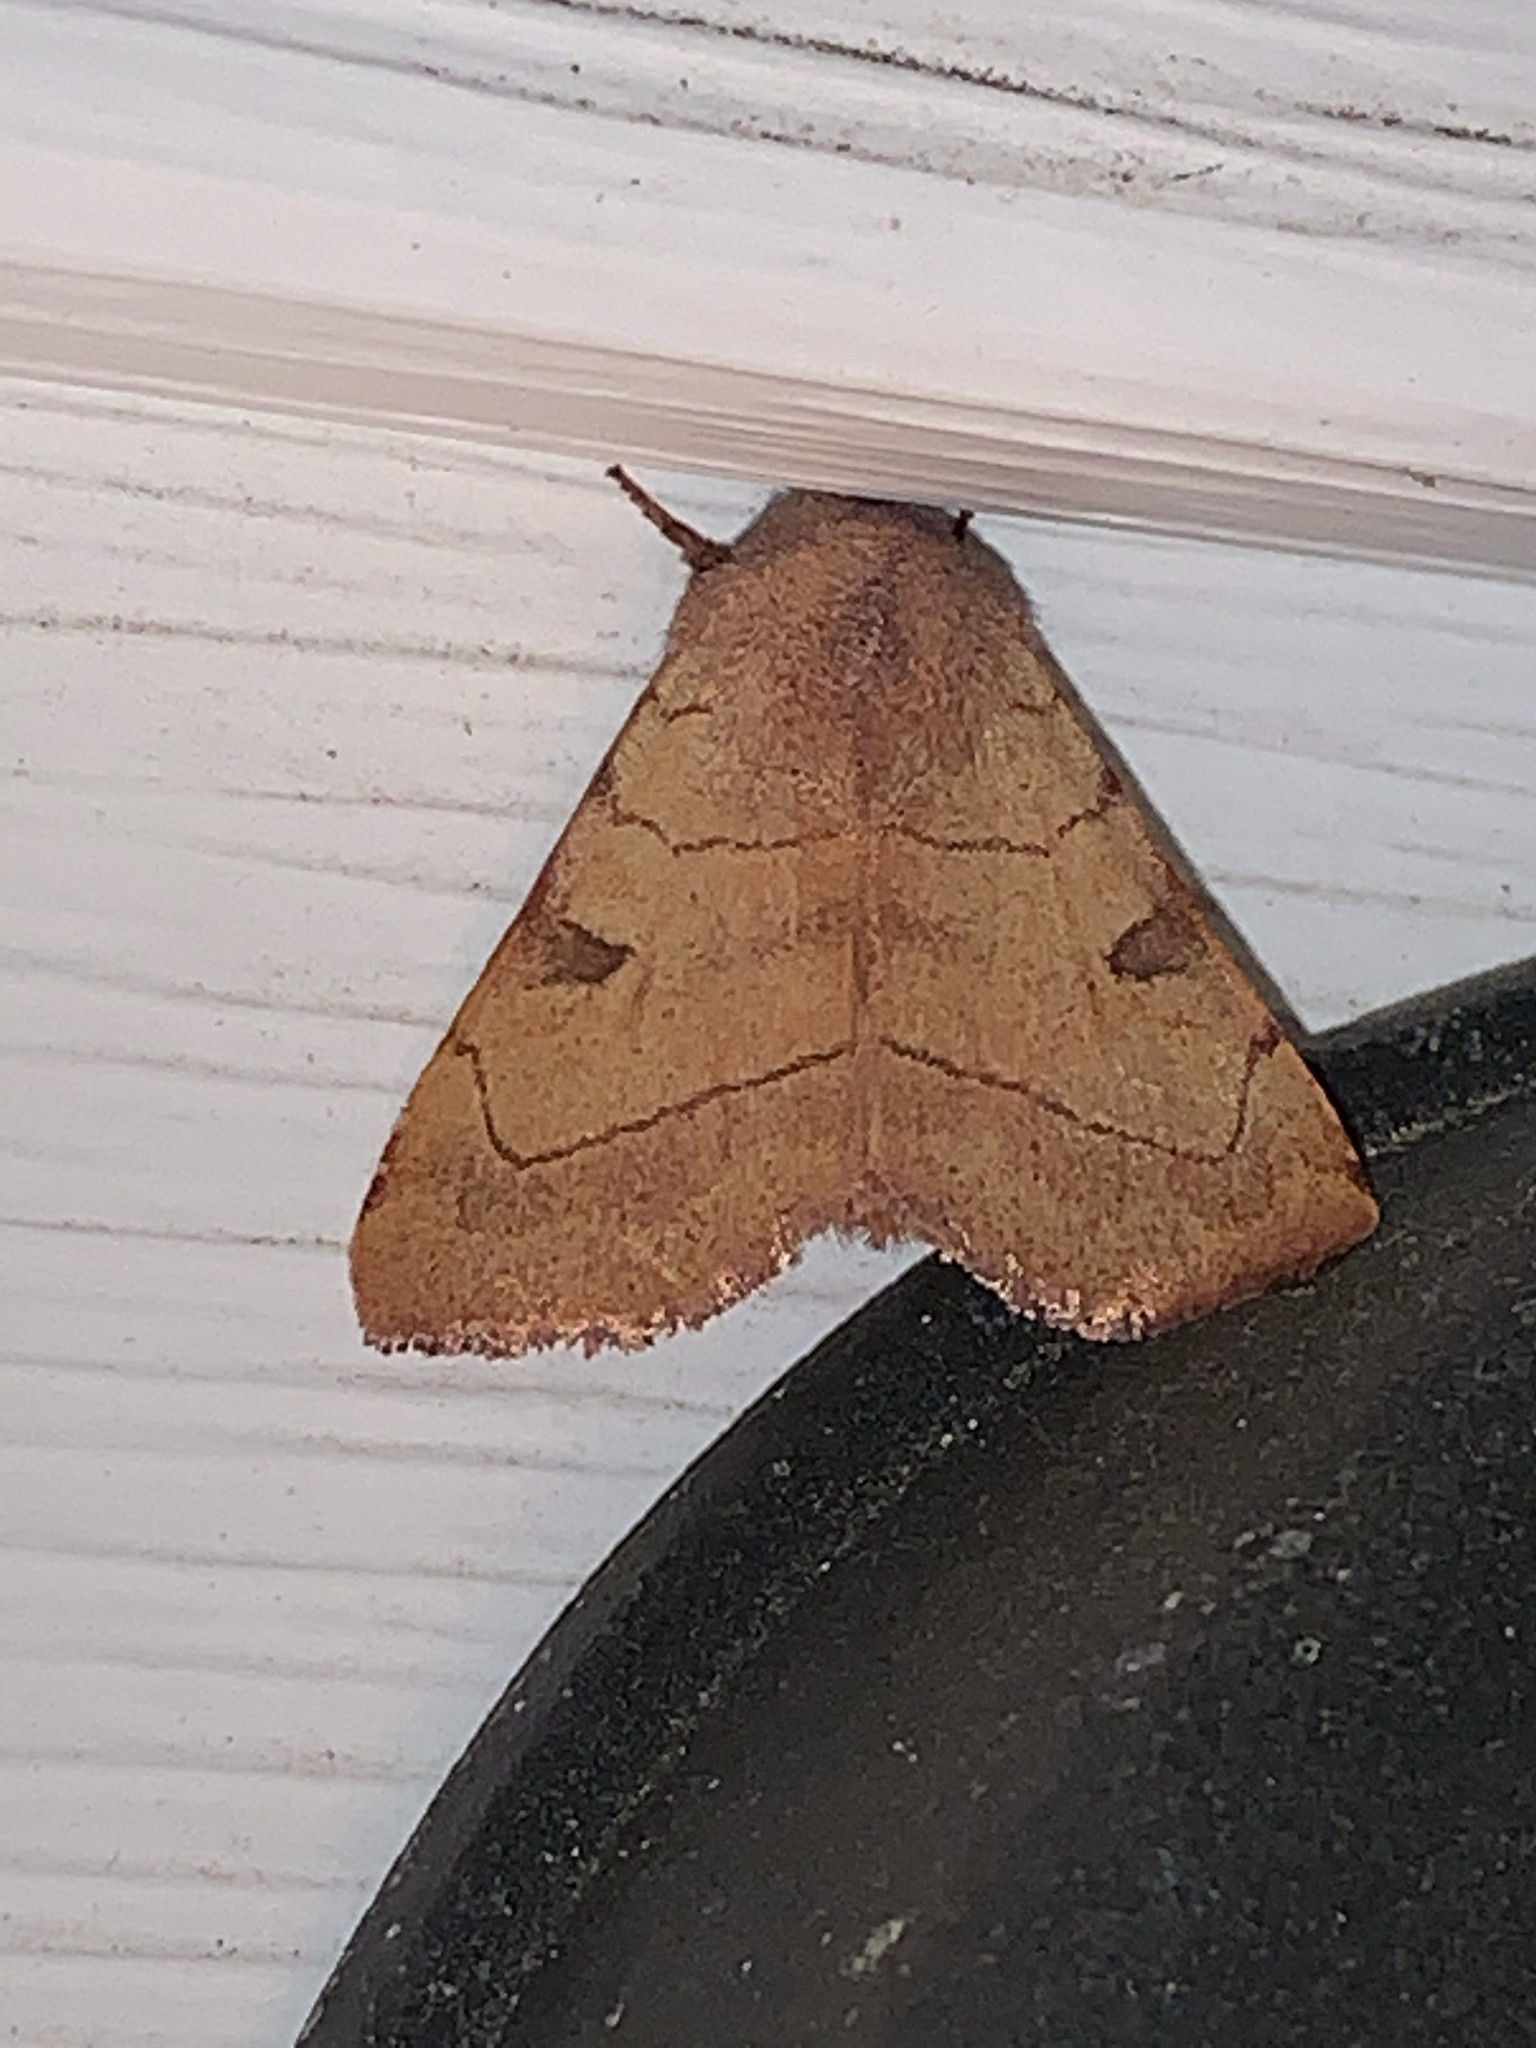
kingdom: Animalia
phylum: Arthropoda
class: Insecta
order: Lepidoptera
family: Noctuidae
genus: Choephora
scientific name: Choephora fungorum
